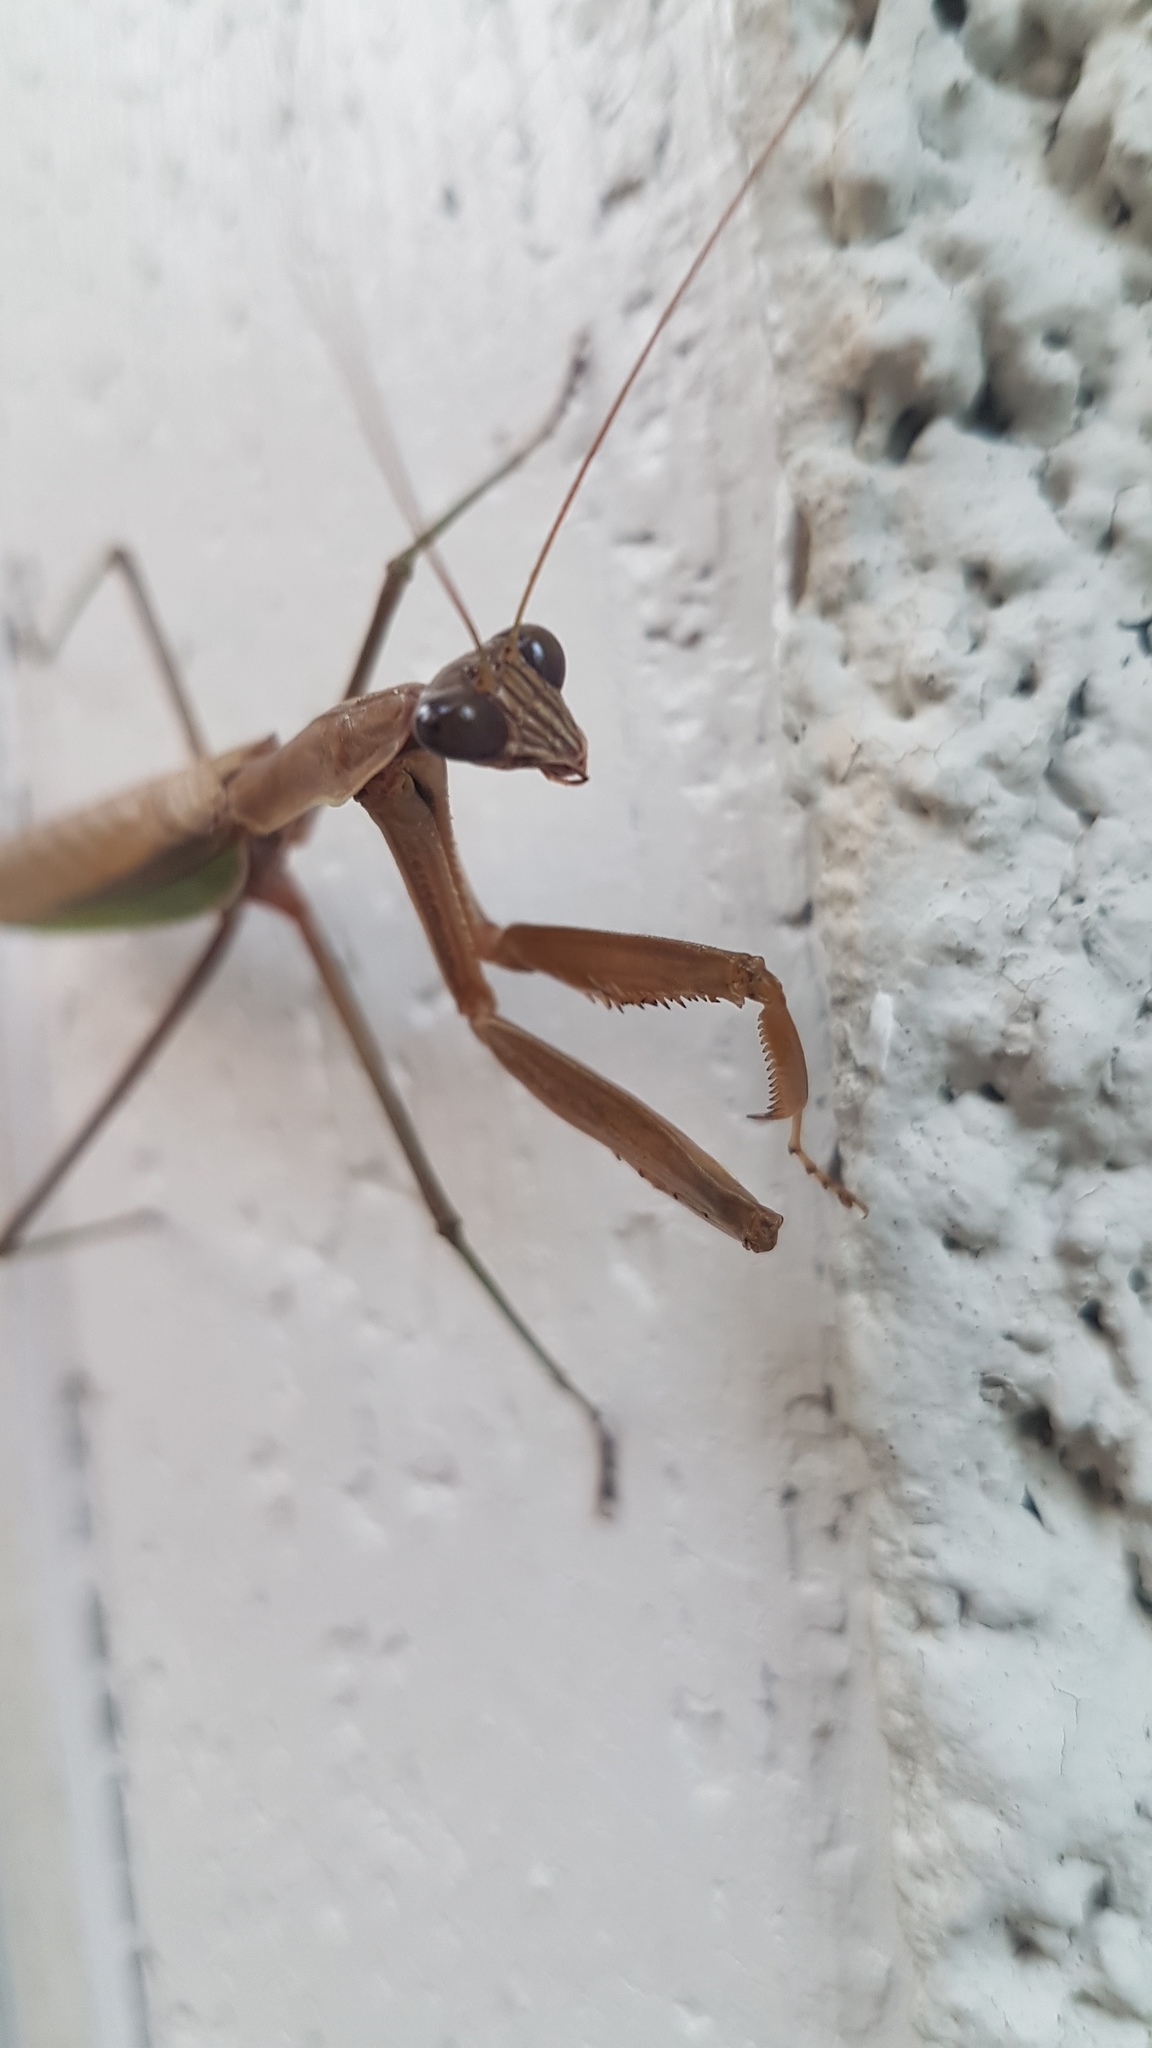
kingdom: Animalia
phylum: Arthropoda
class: Insecta
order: Mantodea
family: Mantidae
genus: Tenodera
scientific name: Tenodera sinensis
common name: Chinese mantis
